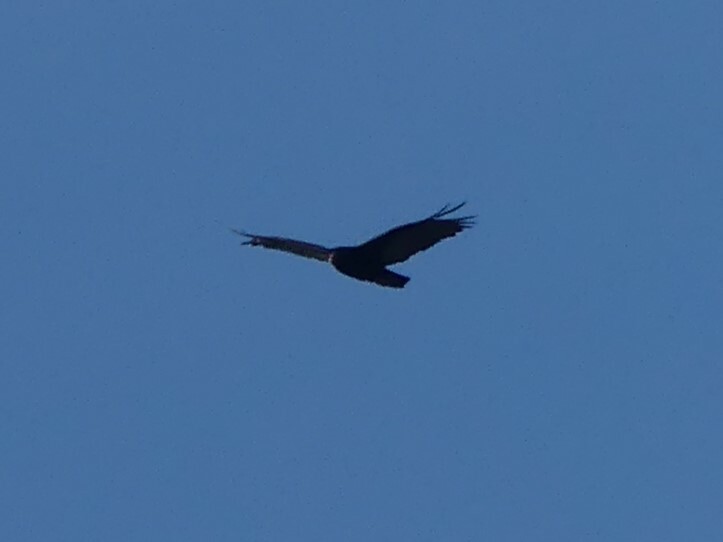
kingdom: Animalia
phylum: Chordata
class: Aves
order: Accipitriformes
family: Cathartidae
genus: Cathartes
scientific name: Cathartes aura
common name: Turkey vulture
